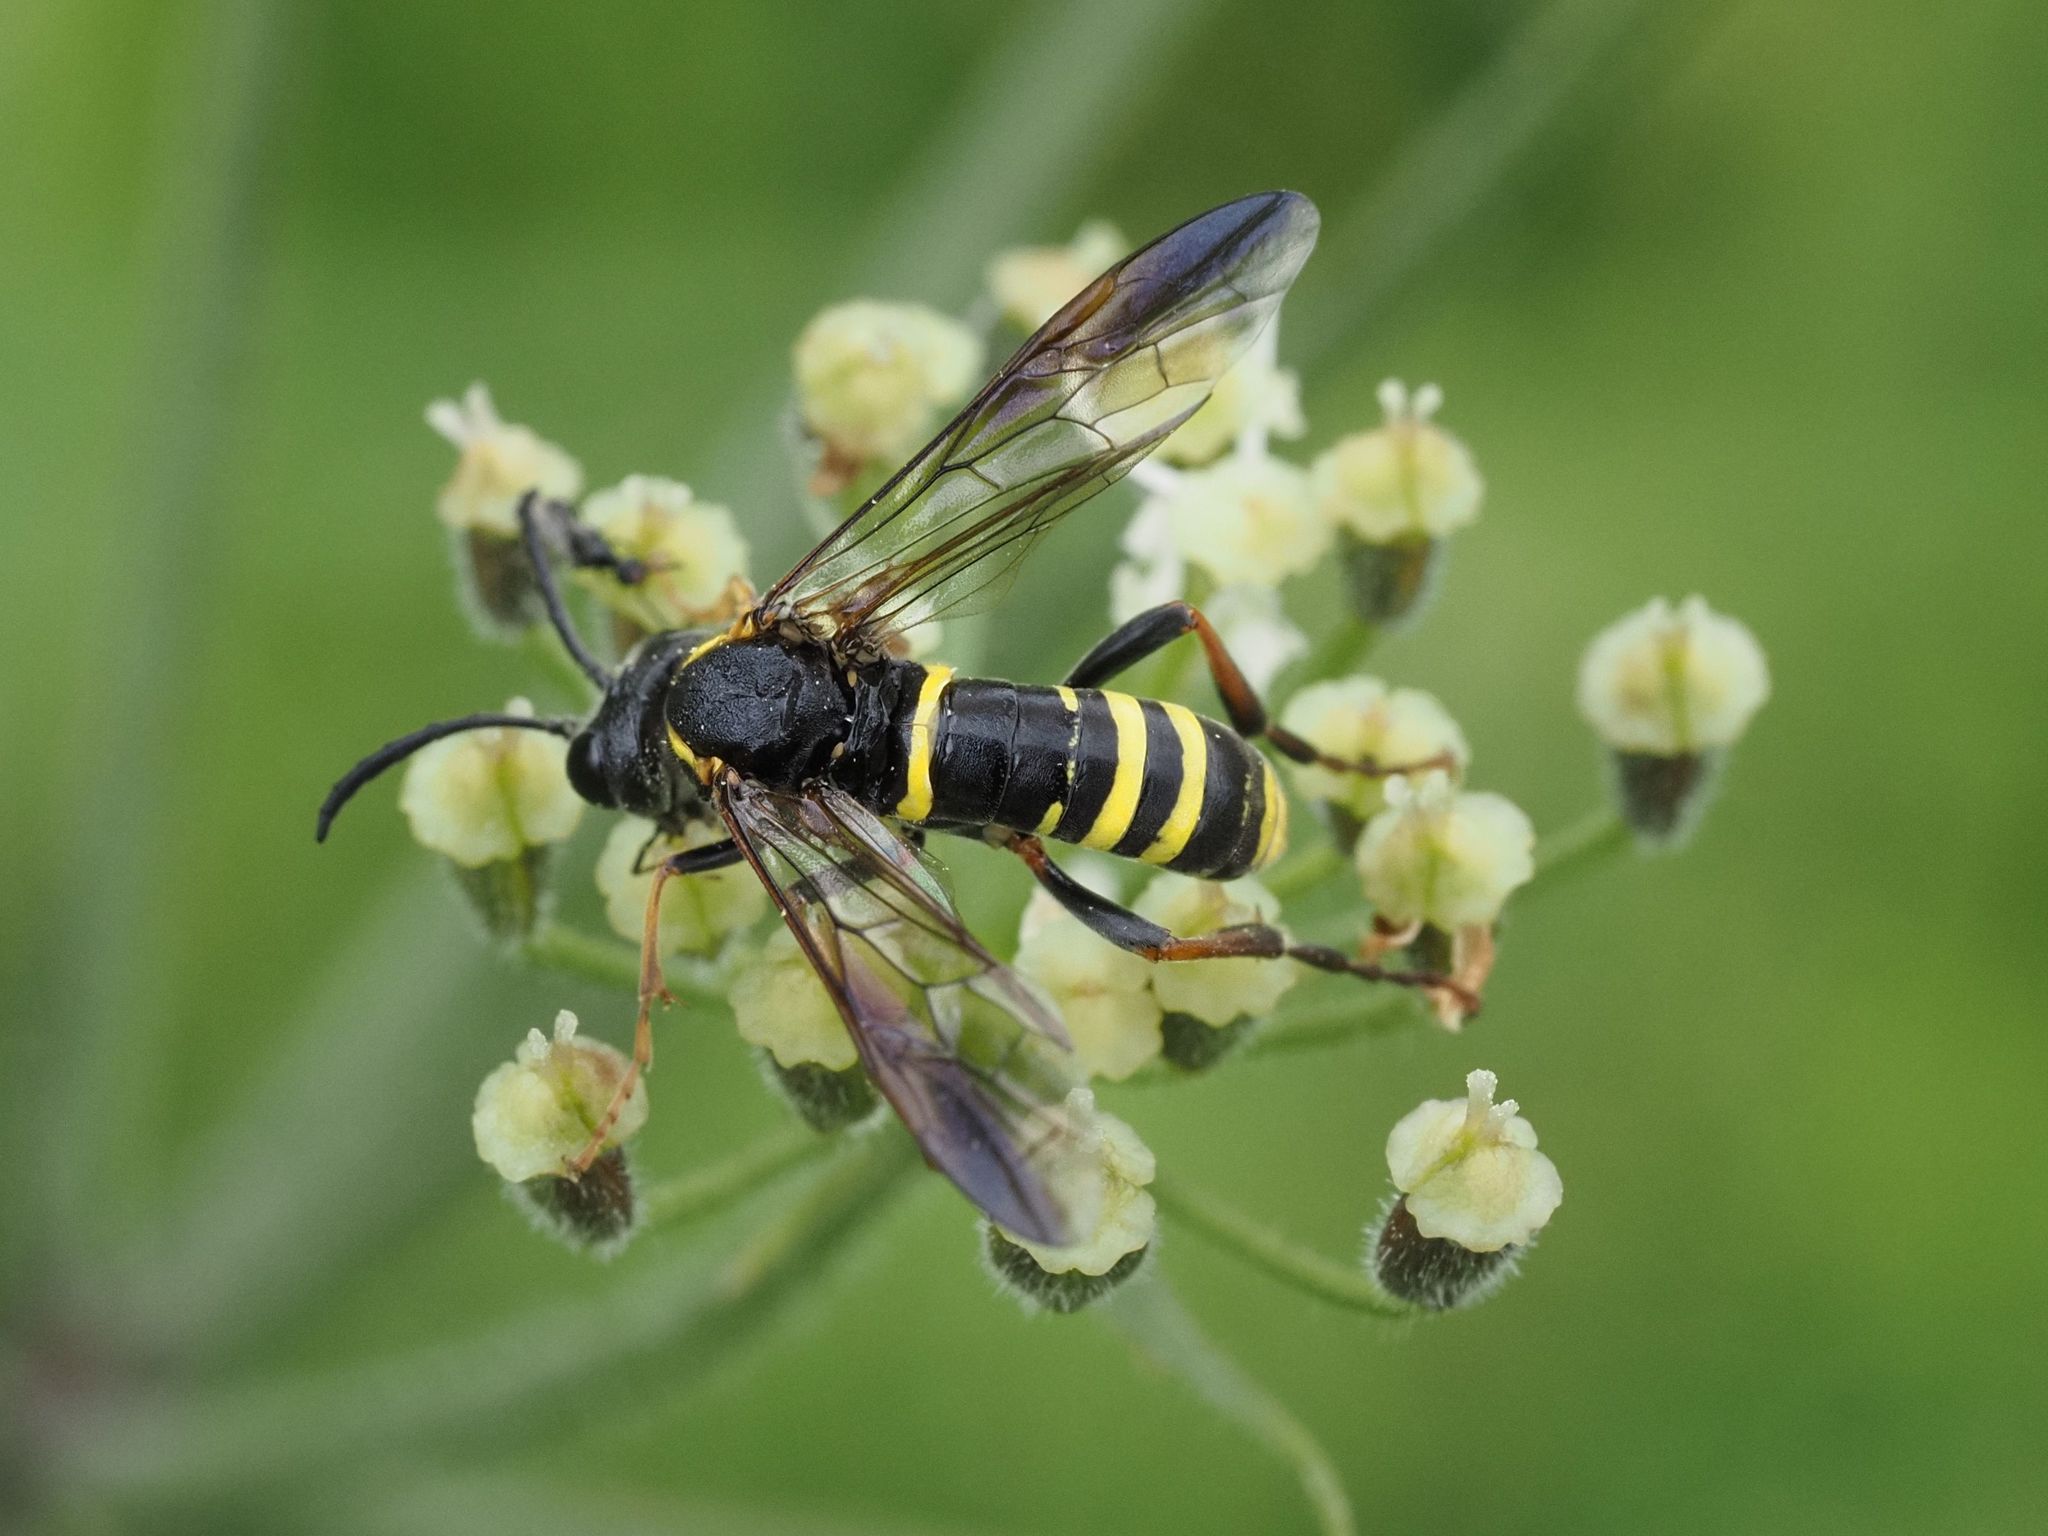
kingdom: Animalia
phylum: Arthropoda
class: Insecta
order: Hymenoptera
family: Tenthredinidae
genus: Tenthredo
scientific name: Tenthredo vespa
